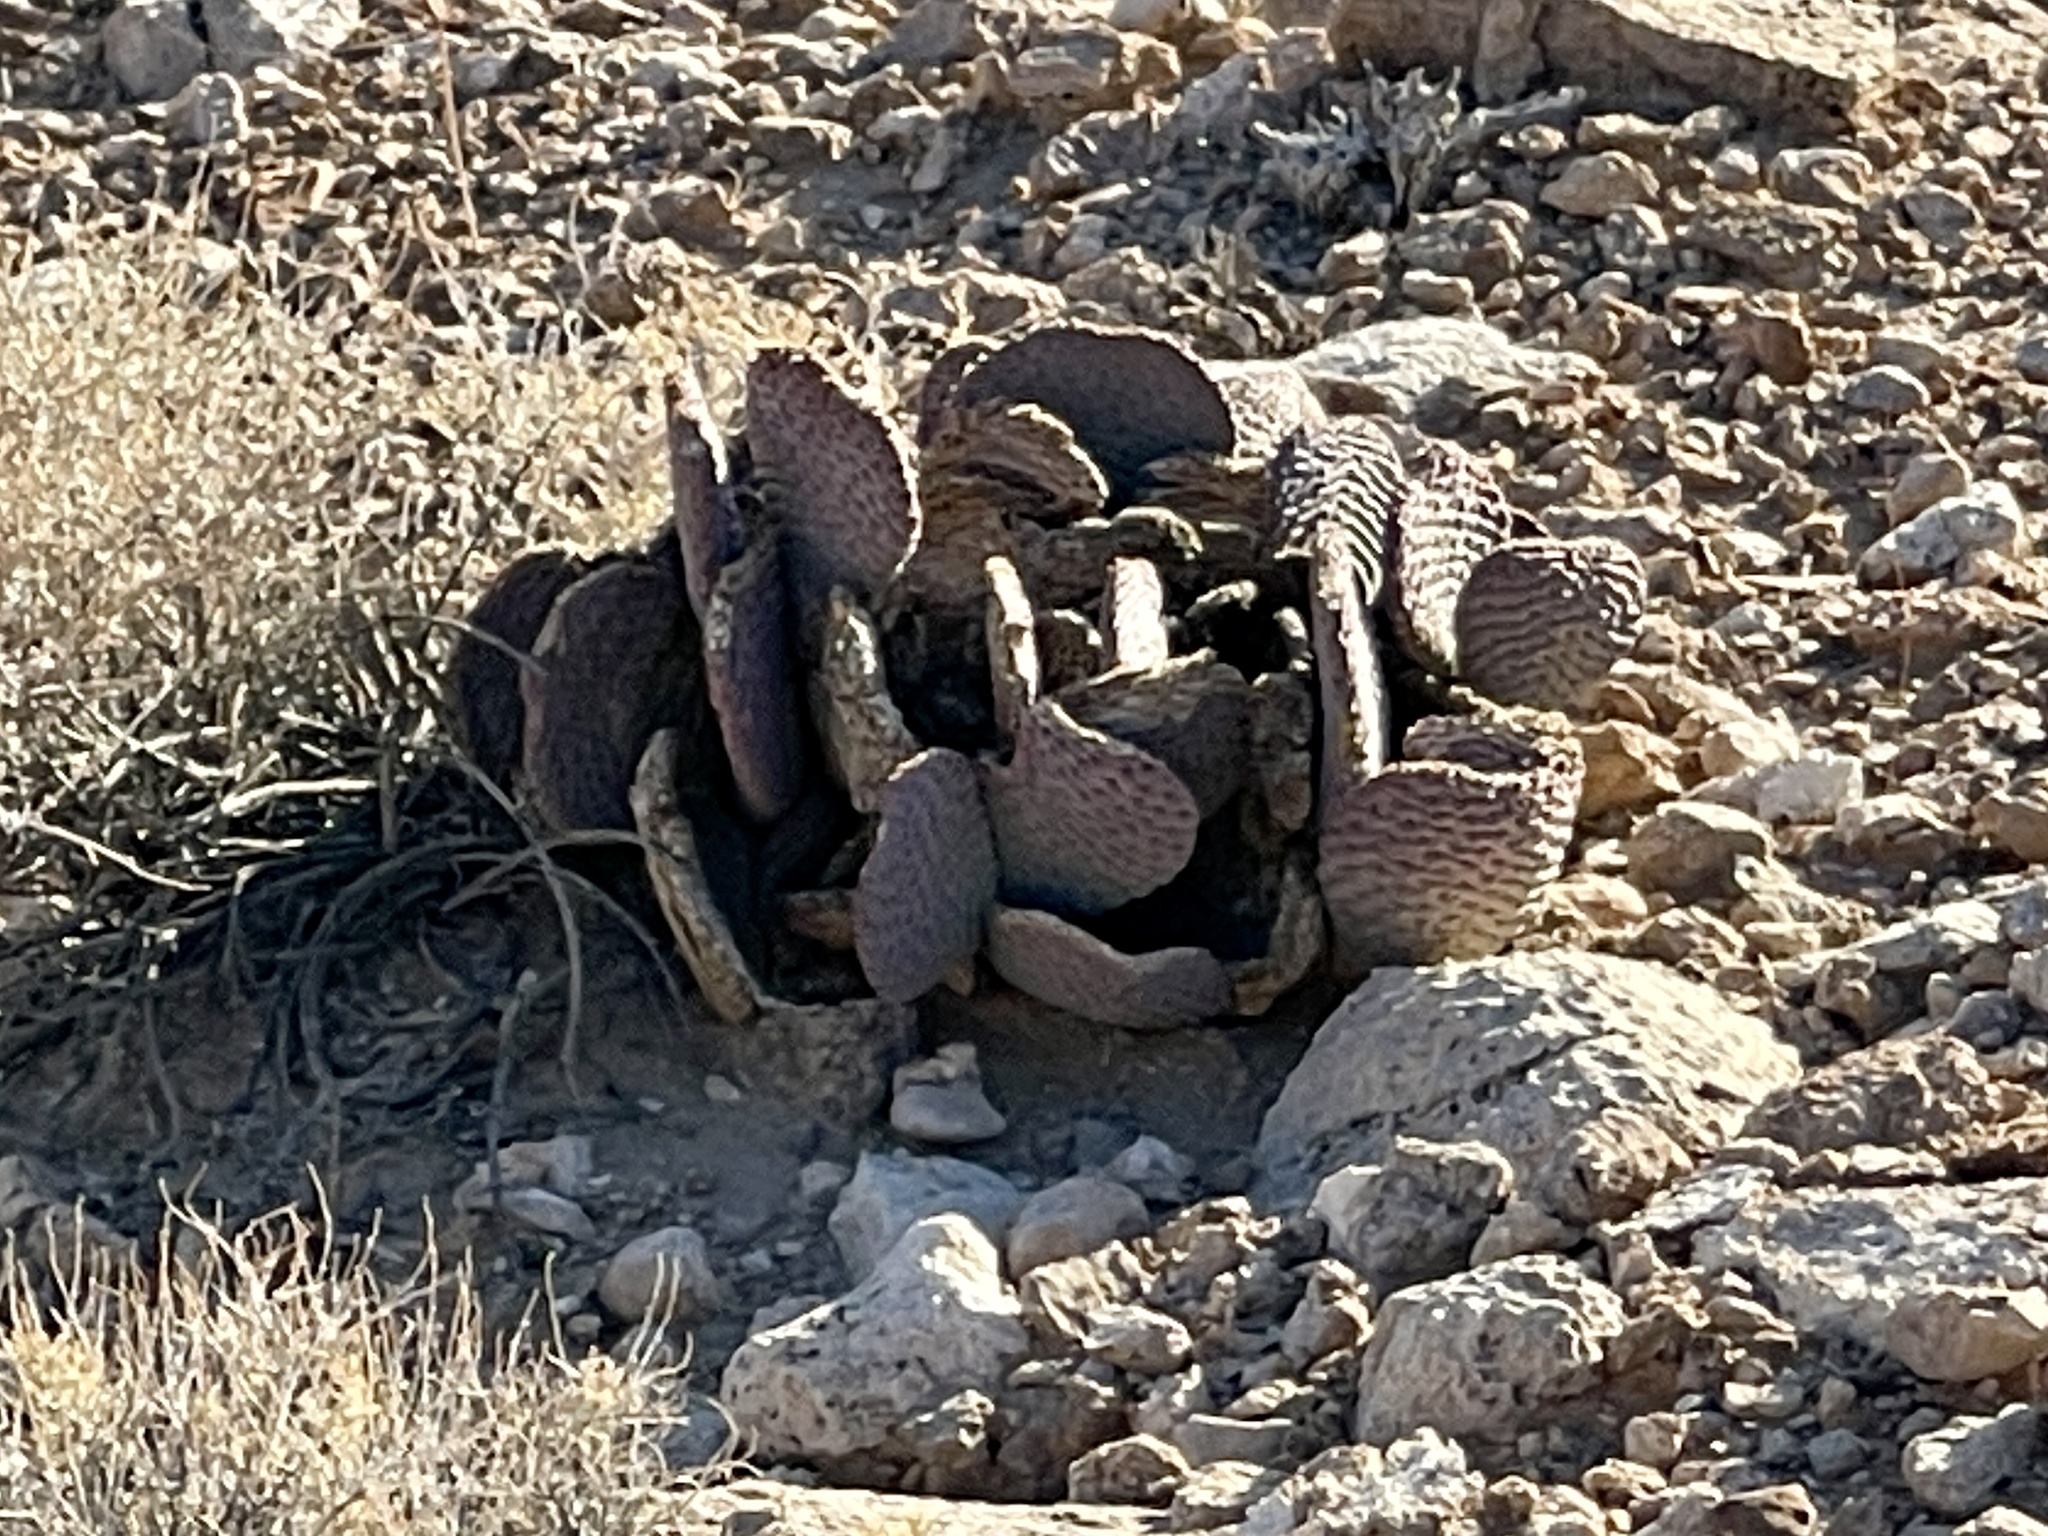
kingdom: Plantae
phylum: Tracheophyta
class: Magnoliopsida
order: Caryophyllales
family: Cactaceae
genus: Opuntia
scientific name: Opuntia basilaris
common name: Beavertail prickly-pear
